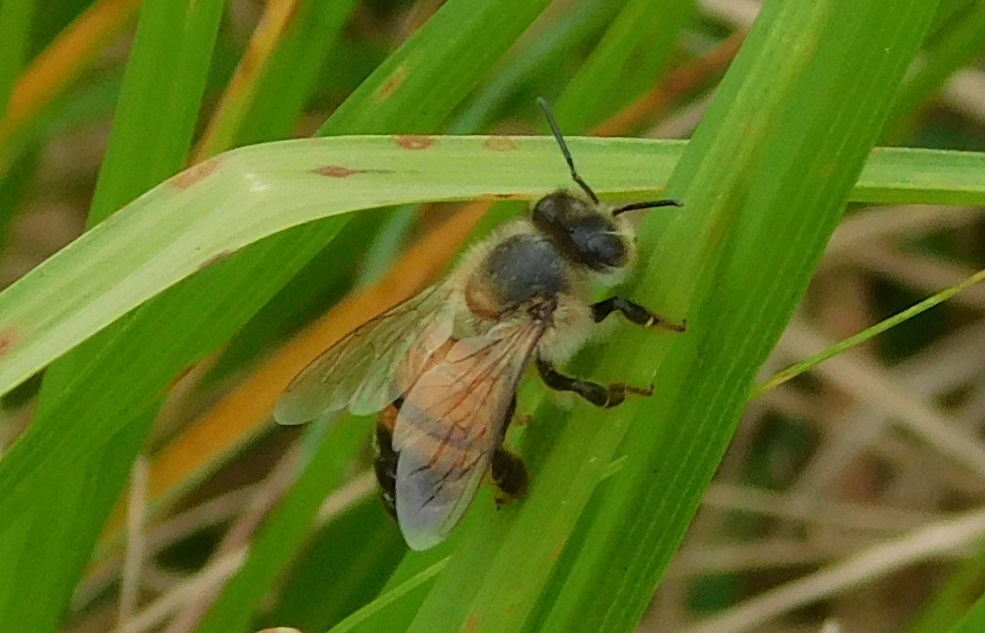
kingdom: Animalia
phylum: Arthropoda
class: Insecta
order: Hymenoptera
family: Apidae
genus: Apis
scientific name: Apis mellifera
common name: Honey bee
